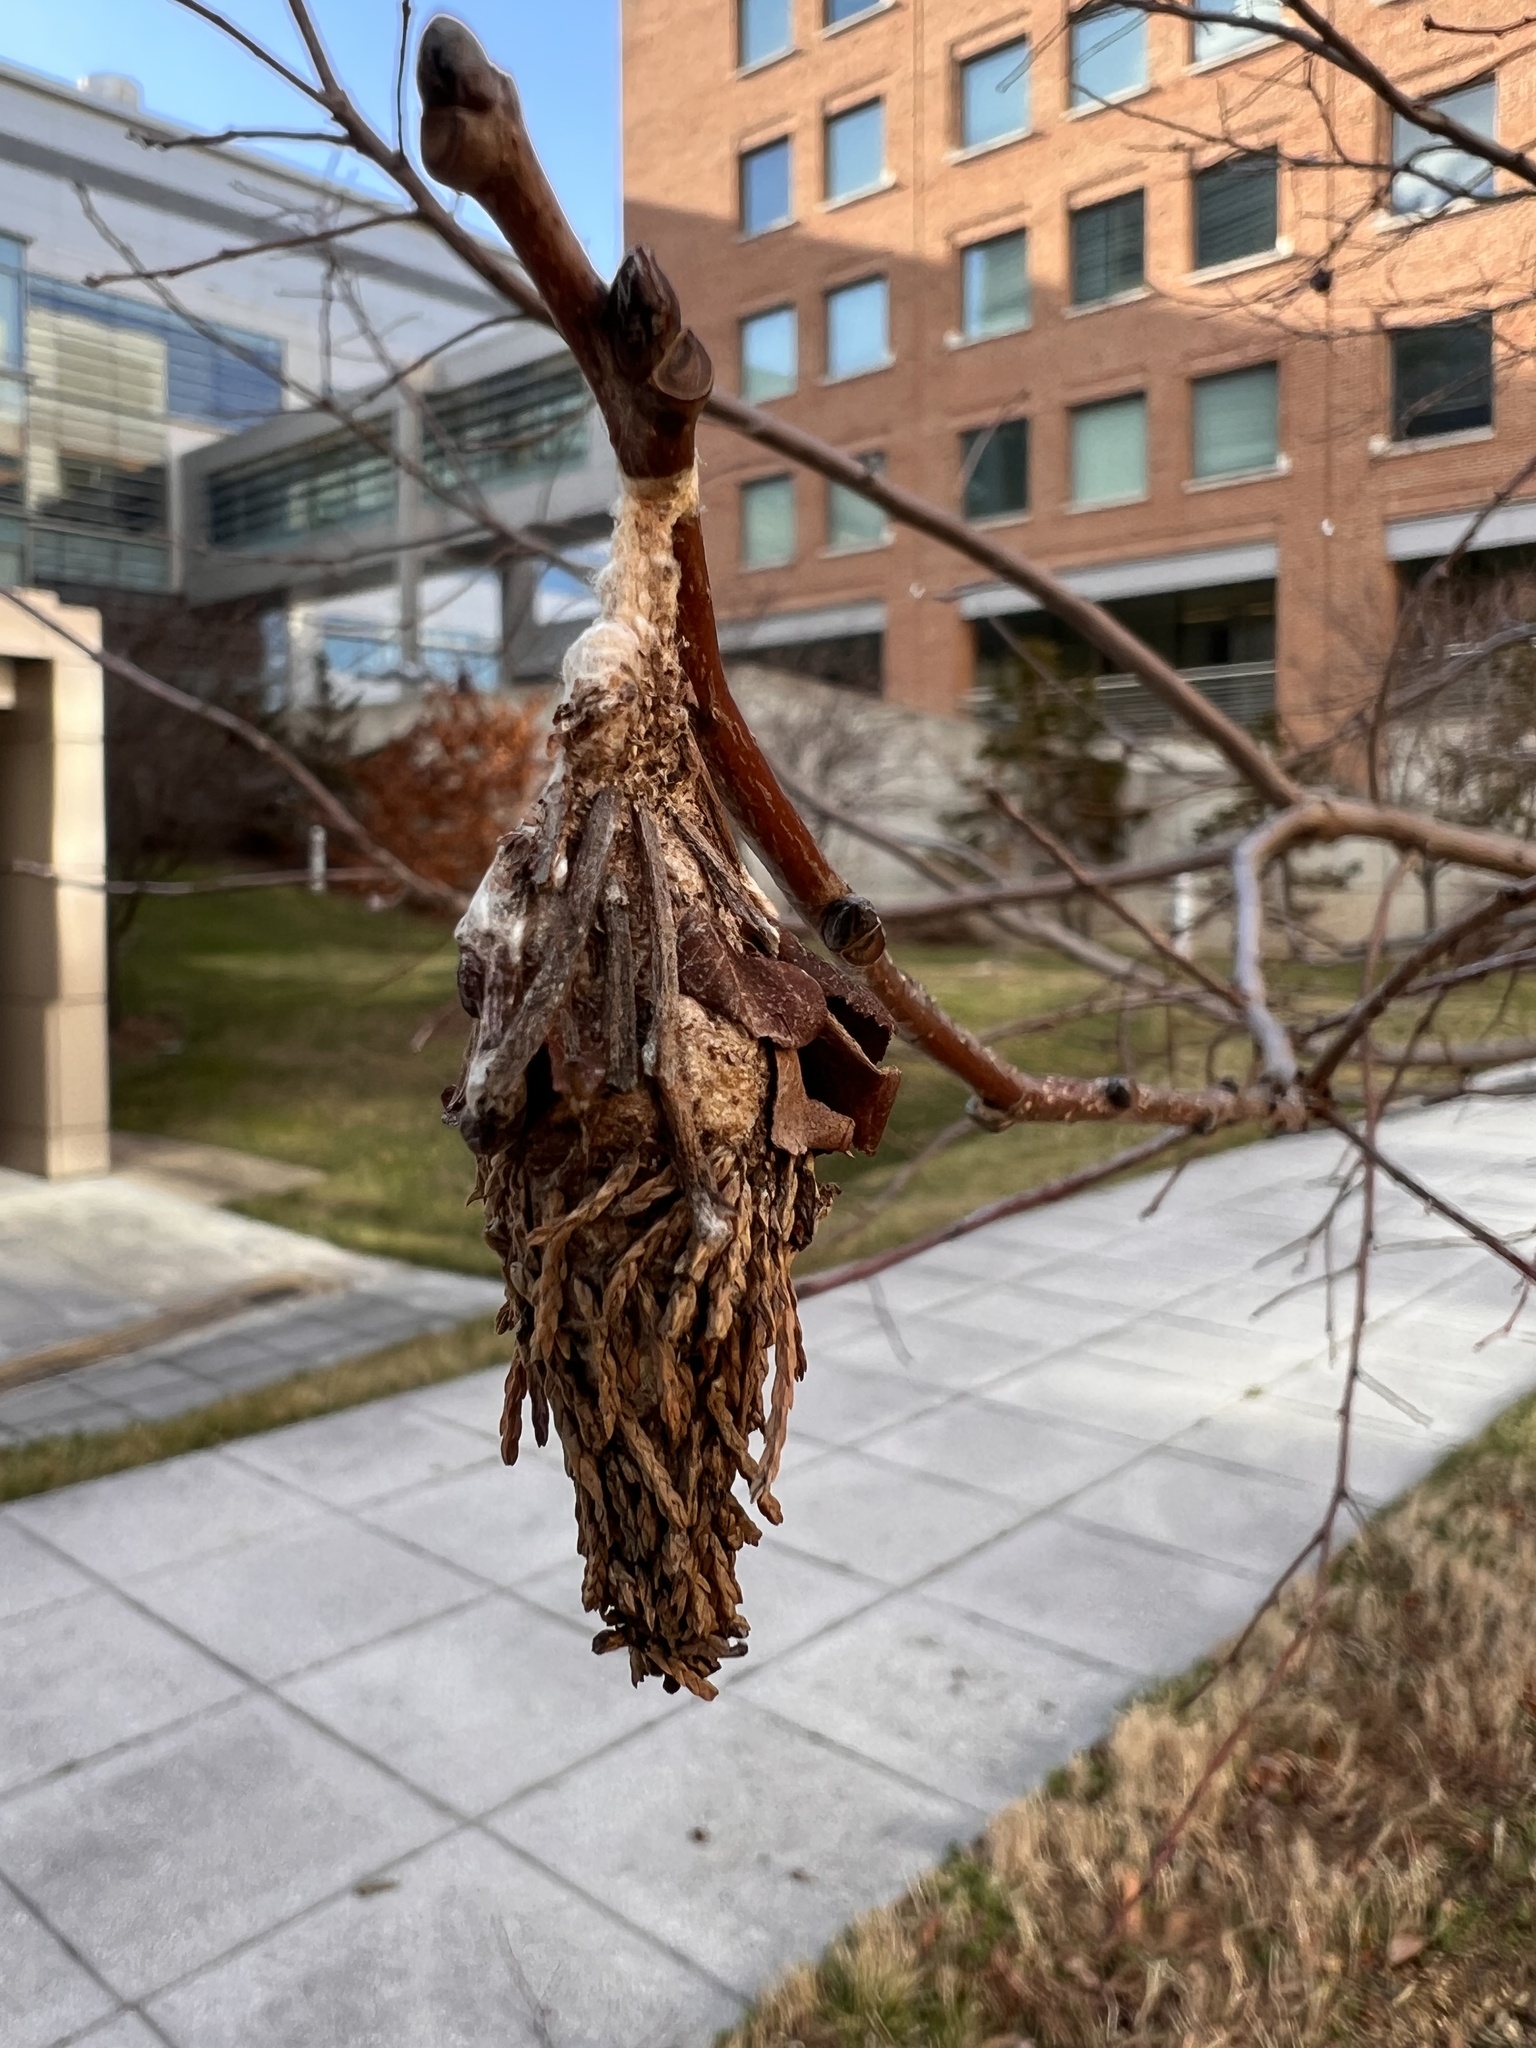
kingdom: Animalia
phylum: Arthropoda
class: Insecta
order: Lepidoptera
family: Psychidae
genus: Thyridopteryx
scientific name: Thyridopteryx ephemeraeformis
